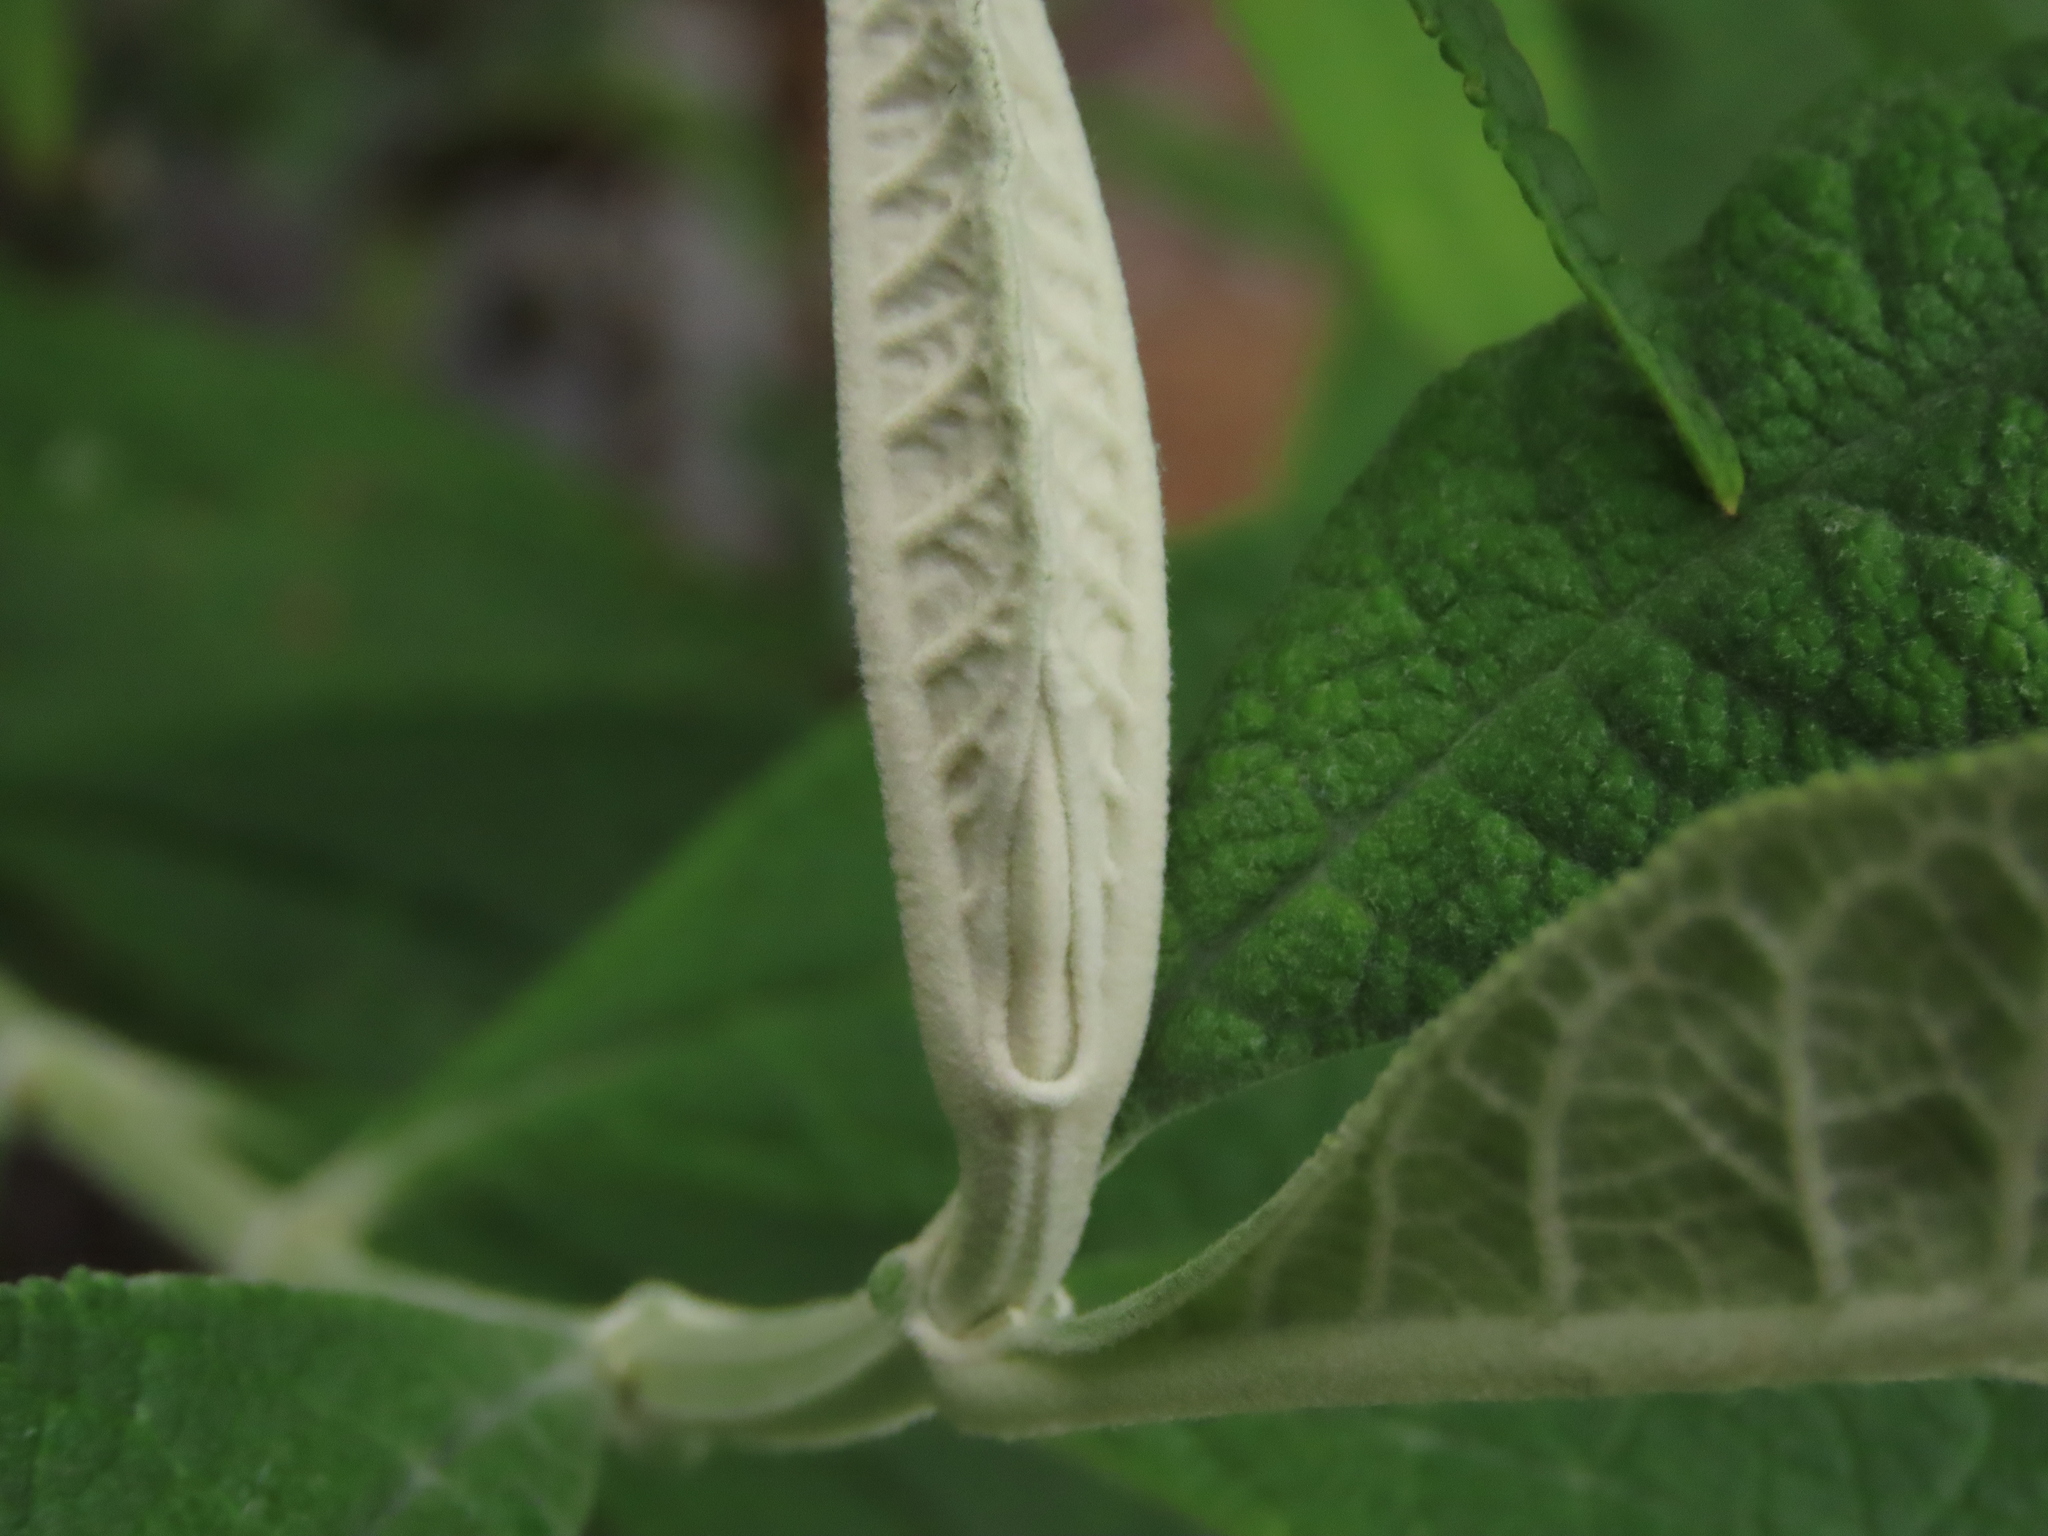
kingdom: Plantae
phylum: Tracheophyta
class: Magnoliopsida
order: Lamiales
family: Scrophulariaceae
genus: Buddleja
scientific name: Buddleja globosa
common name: Orange-ball-tree
